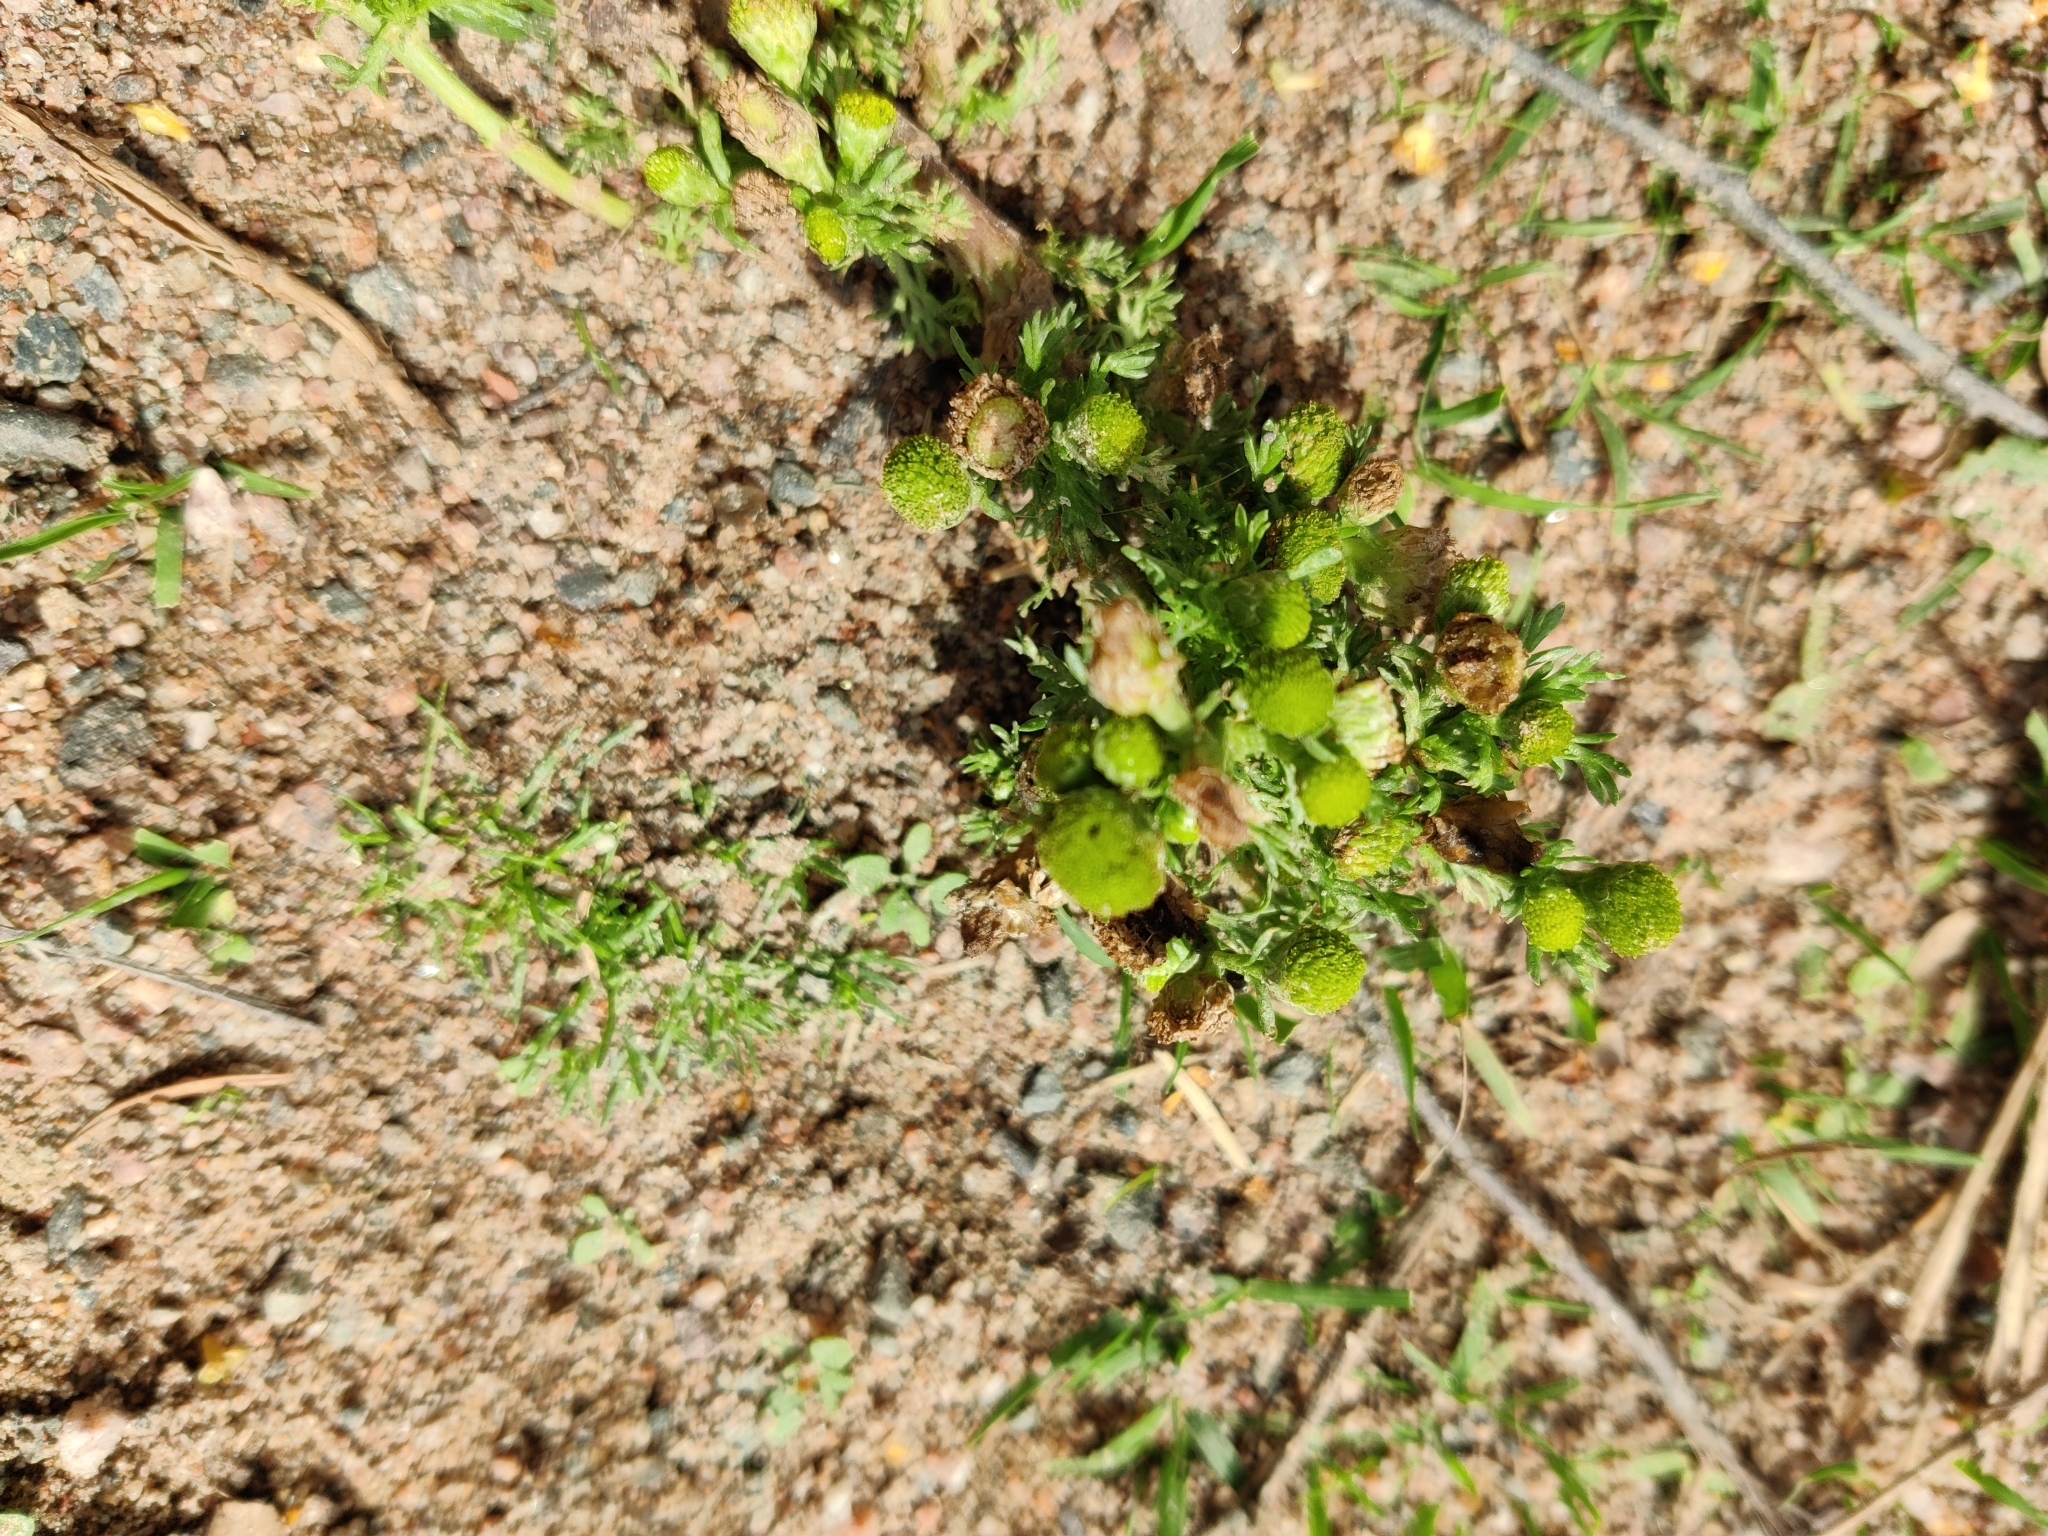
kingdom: Plantae
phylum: Tracheophyta
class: Magnoliopsida
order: Asterales
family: Asteraceae
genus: Matricaria
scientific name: Matricaria discoidea
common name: Disc mayweed
